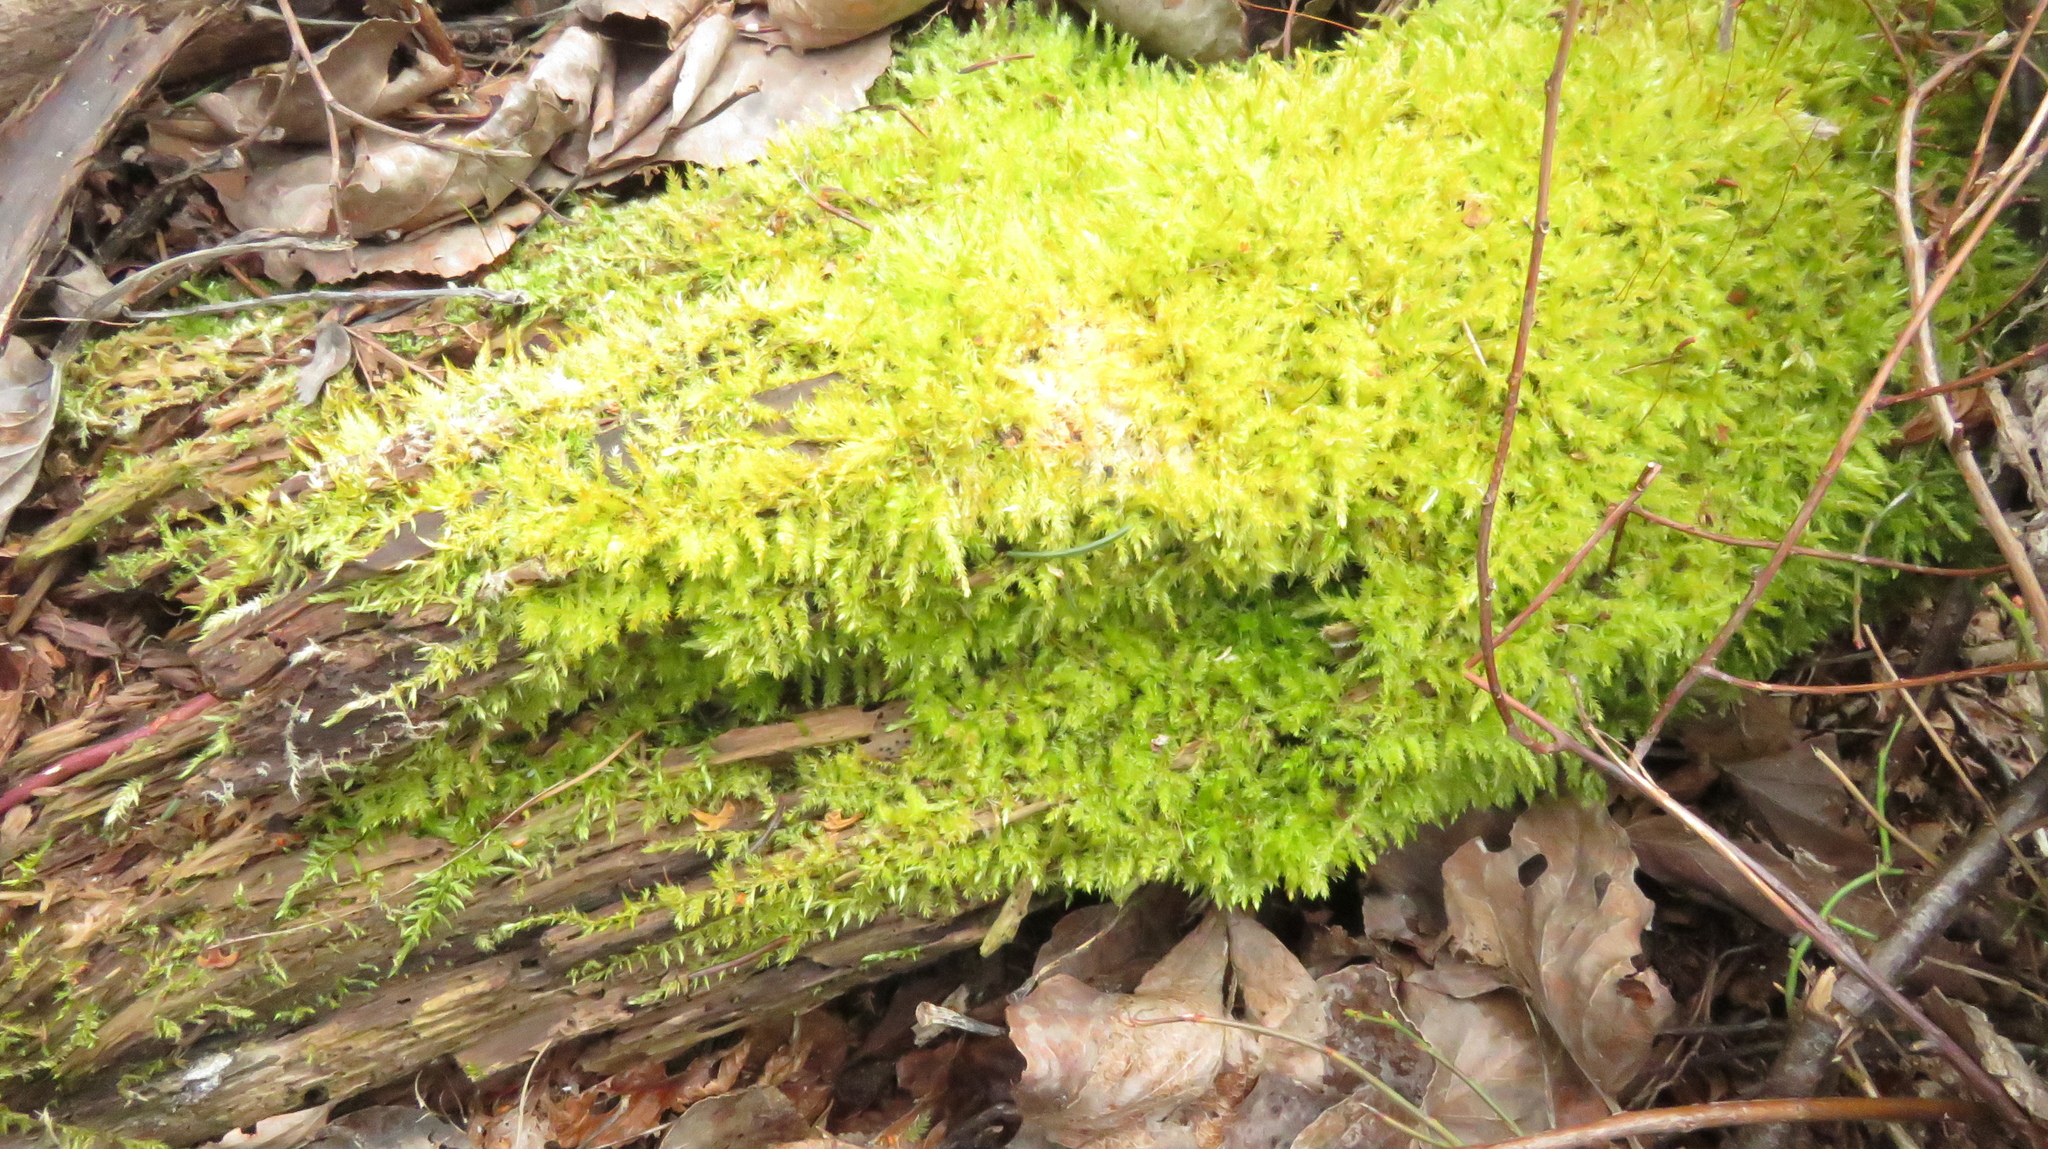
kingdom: Plantae
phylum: Bryophyta
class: Bryopsida
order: Hypnales
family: Callicladiaceae
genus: Callicladium
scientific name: Callicladium haldanianum
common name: Beautiful branch moss
